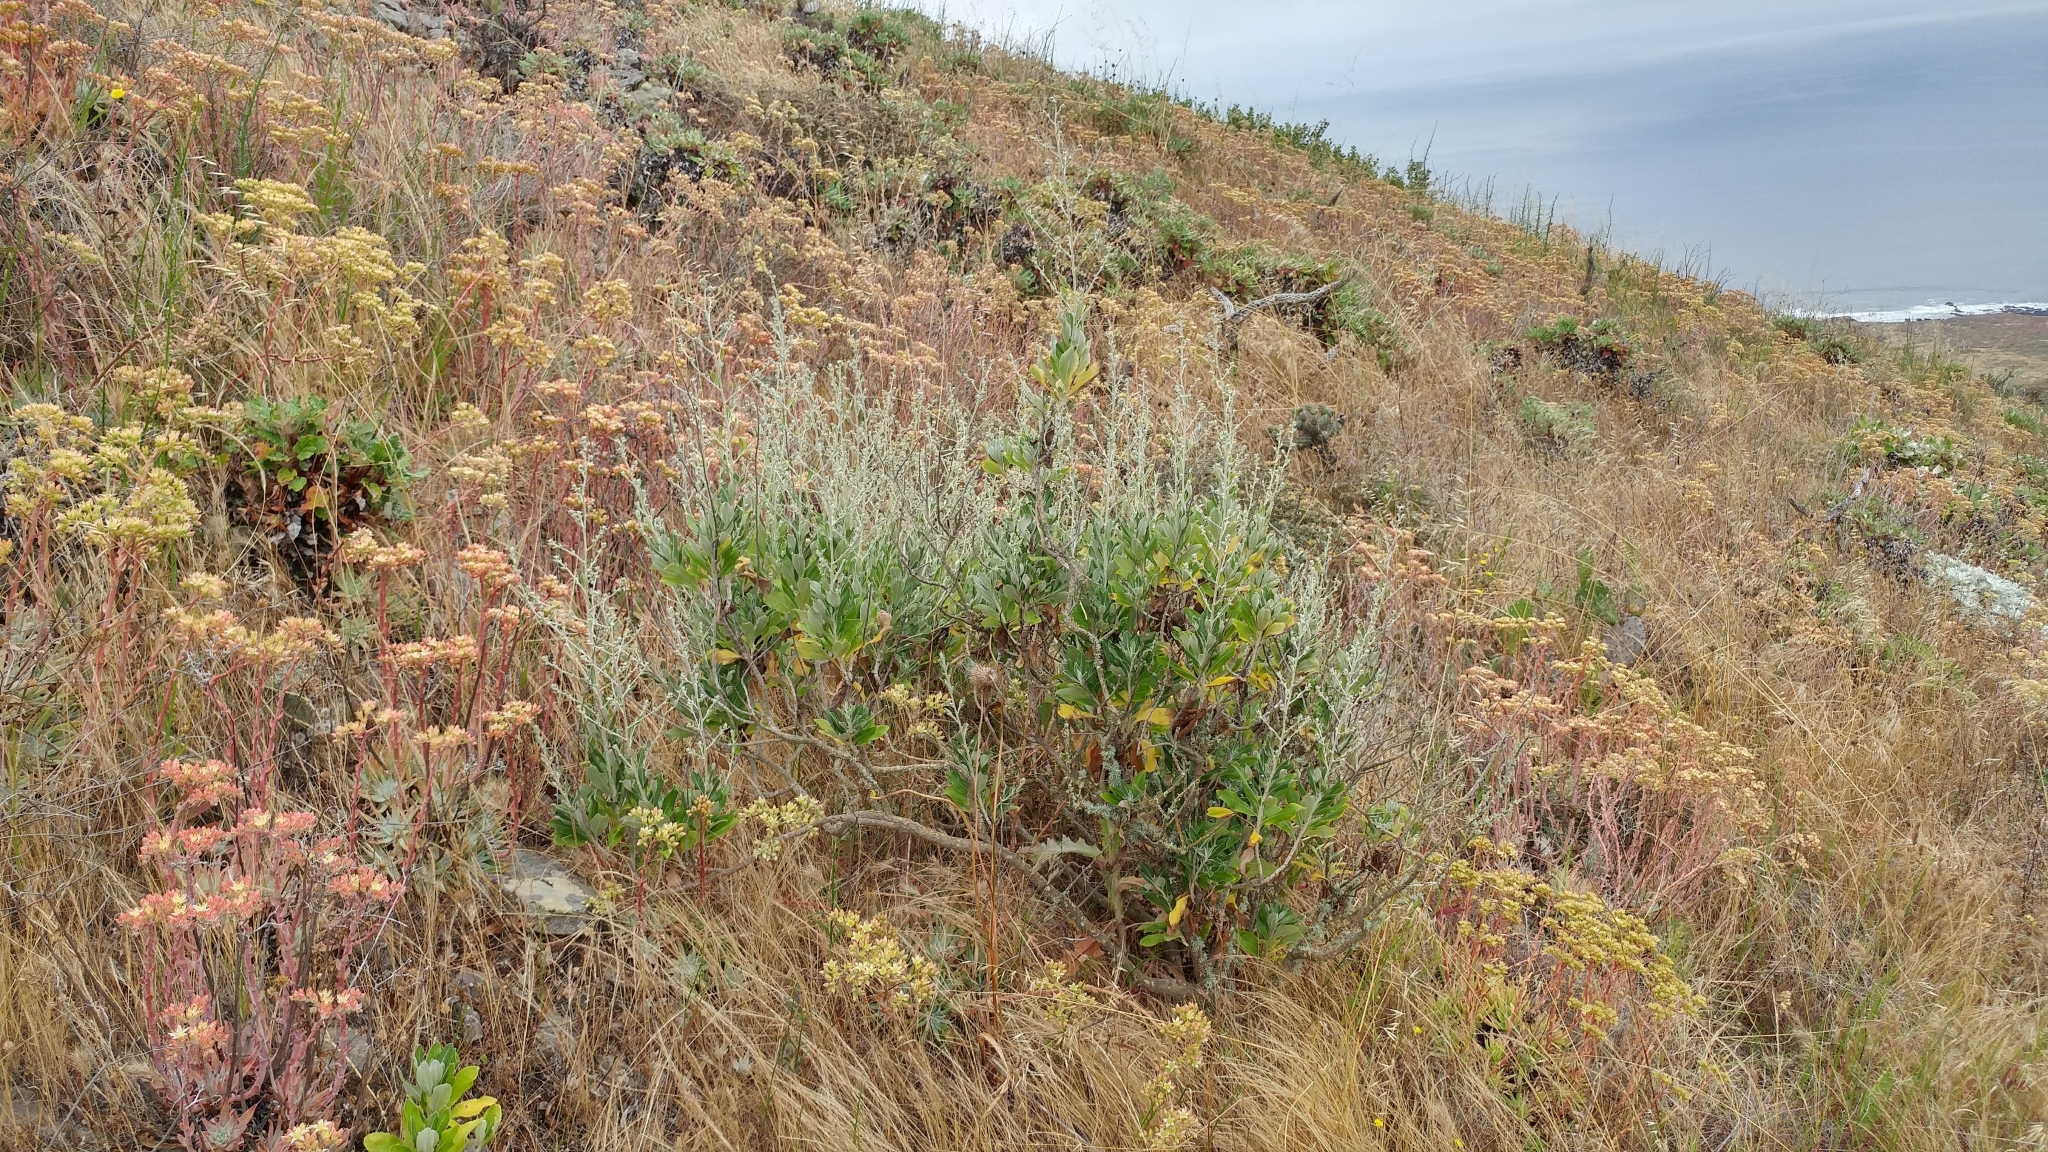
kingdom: Plantae
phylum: Tracheophyta
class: Magnoliopsida
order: Asterales
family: Asteraceae
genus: Hazardia
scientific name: Hazardia cana
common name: San clemente island bristleweed
